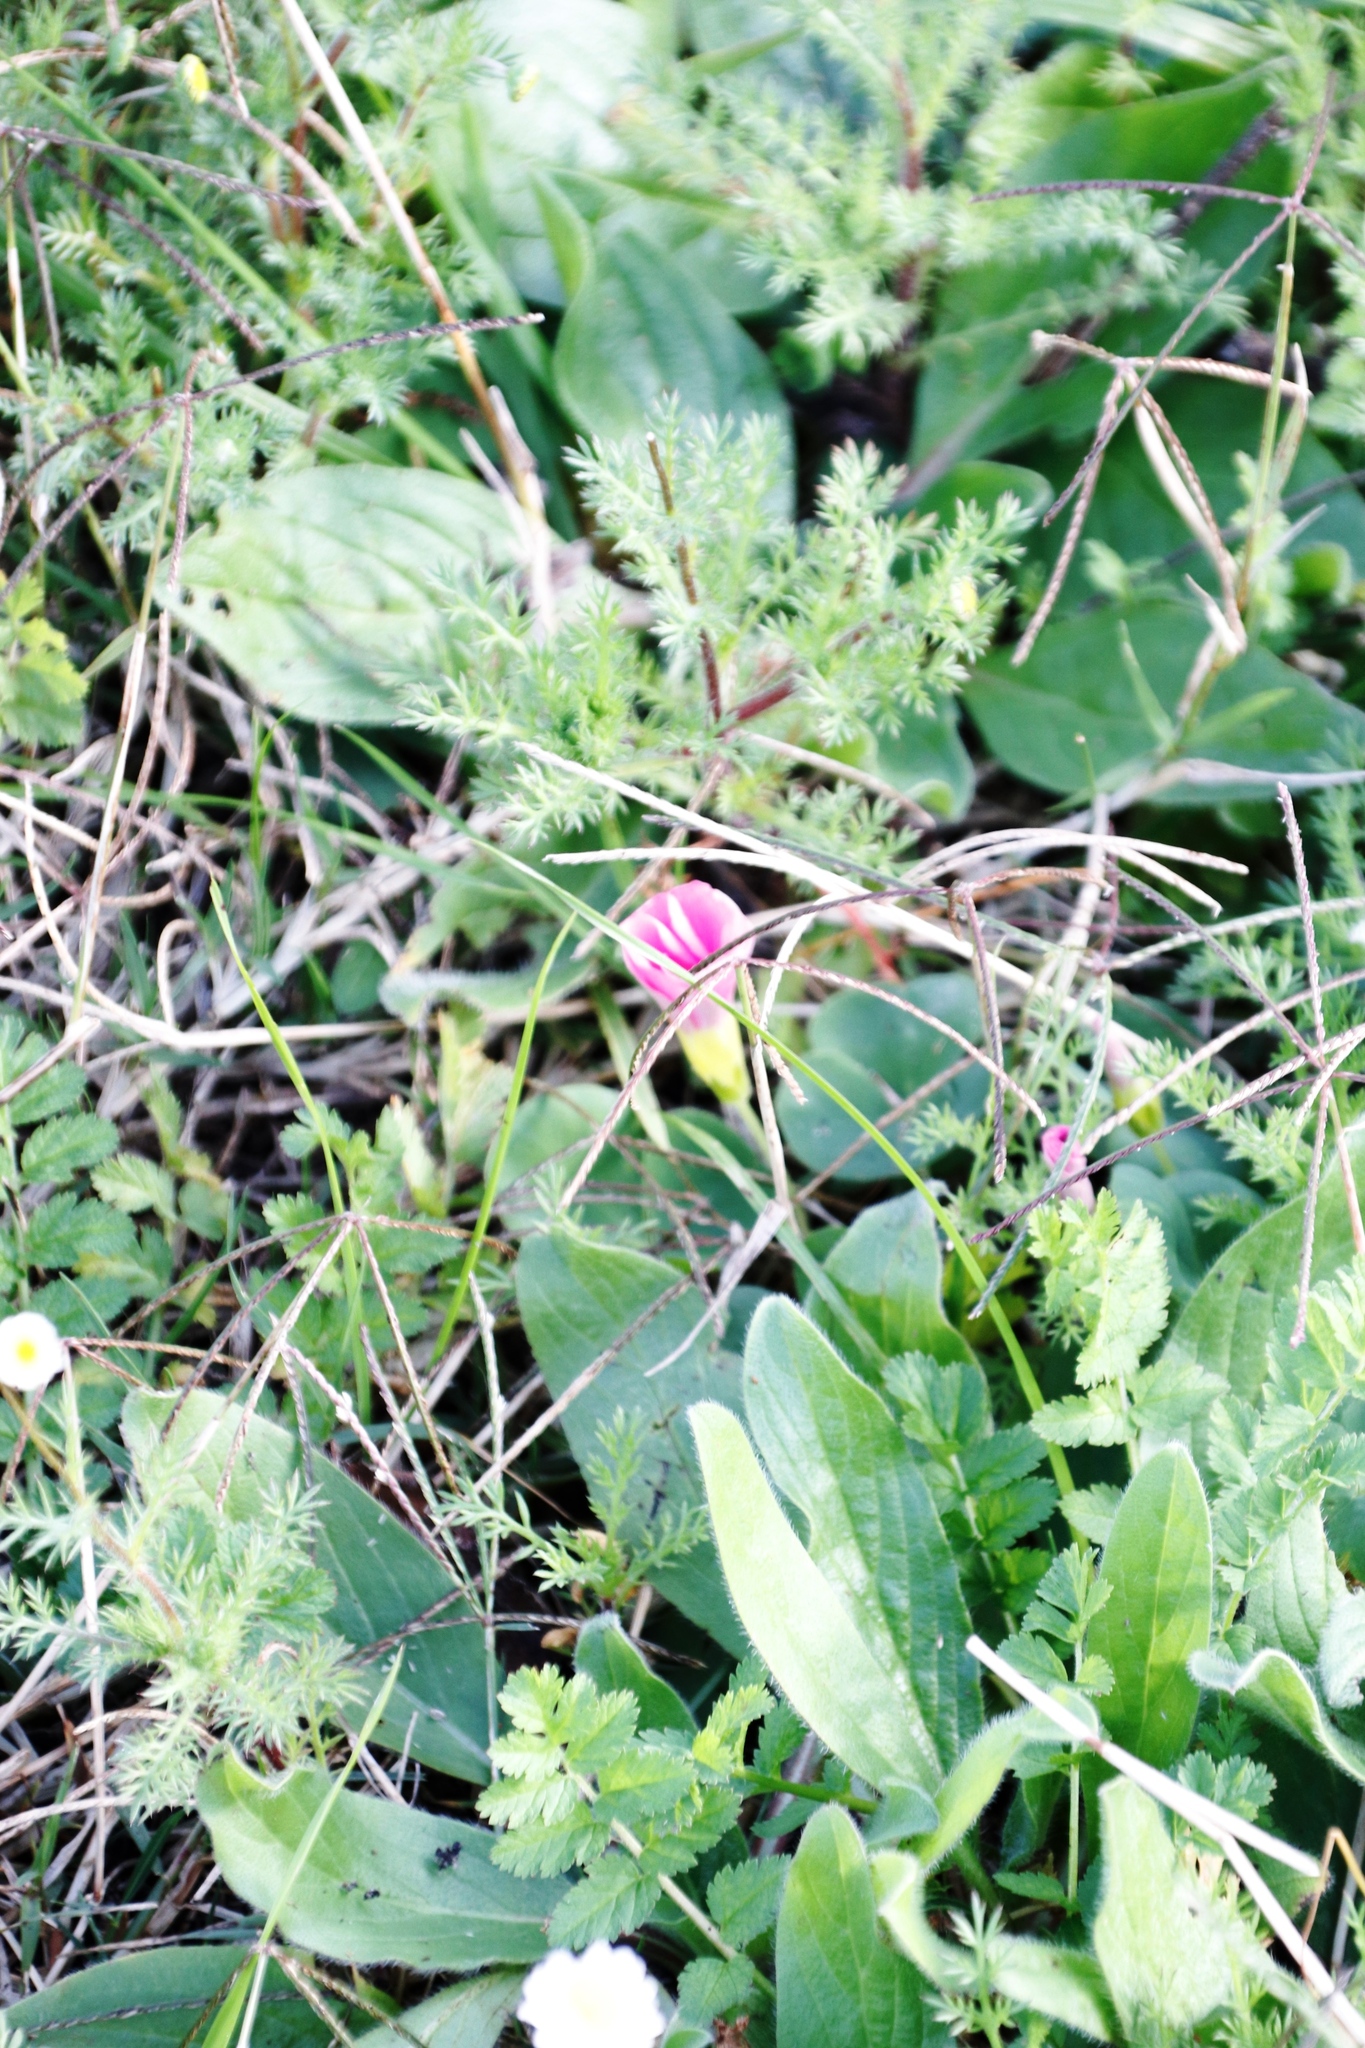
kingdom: Plantae
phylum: Tracheophyta
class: Magnoliopsida
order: Oxalidales
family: Oxalidaceae
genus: Oxalis
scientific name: Oxalis purpurea
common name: Purple woodsorrel
